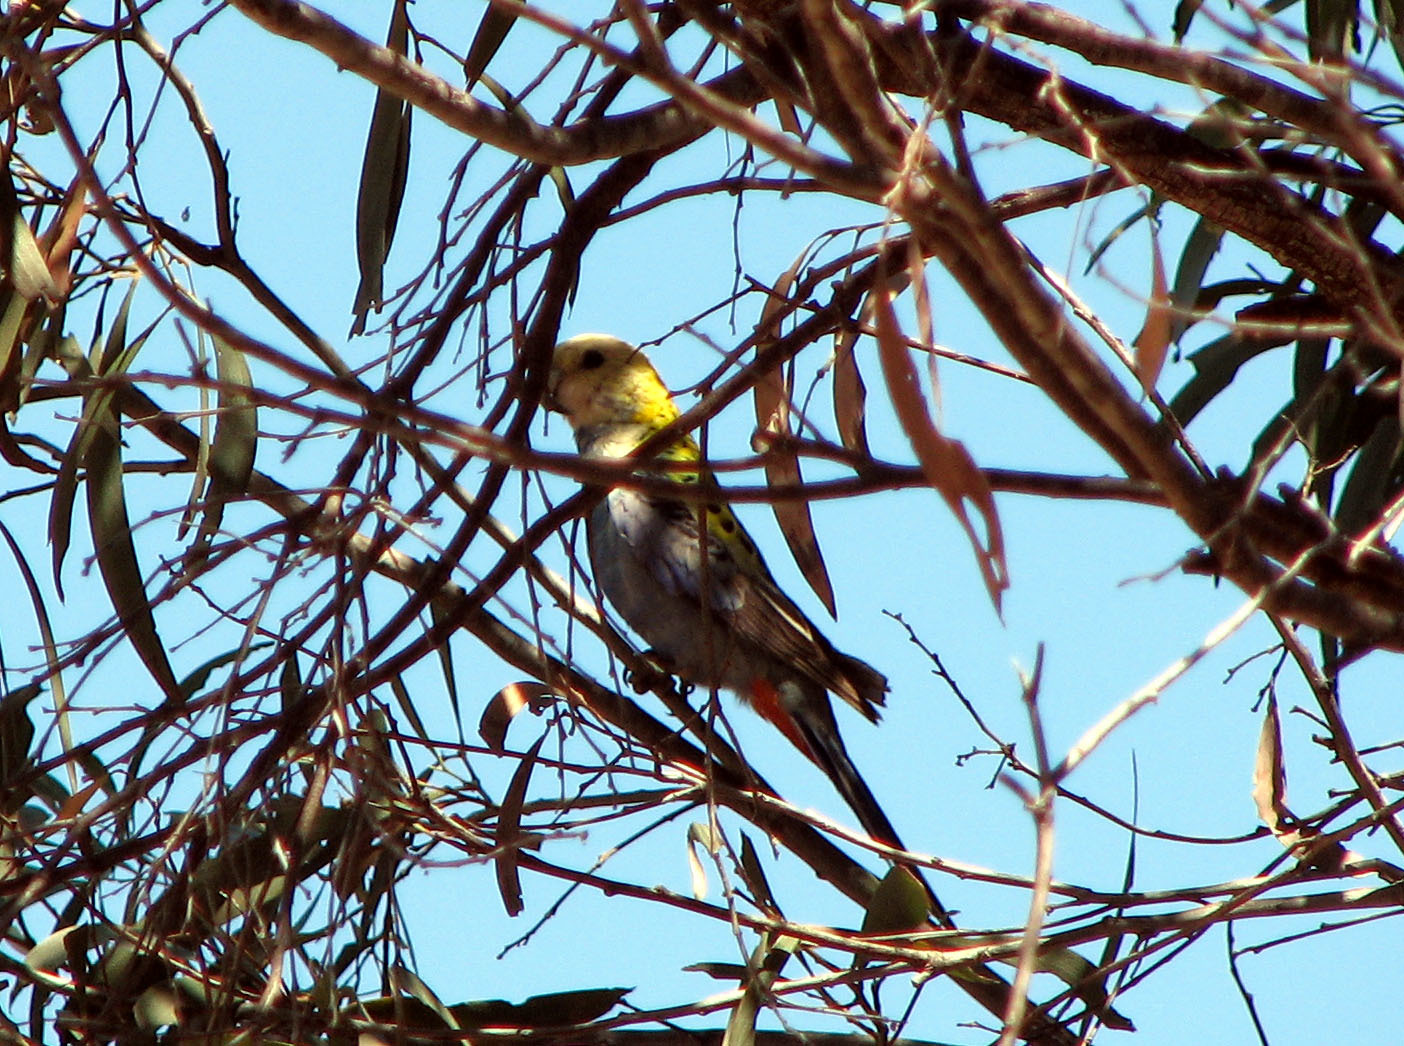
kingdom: Animalia
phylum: Chordata
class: Aves
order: Psittaciformes
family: Psittacidae
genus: Platycercus
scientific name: Platycercus adscitus
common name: Pale-headed rosella
